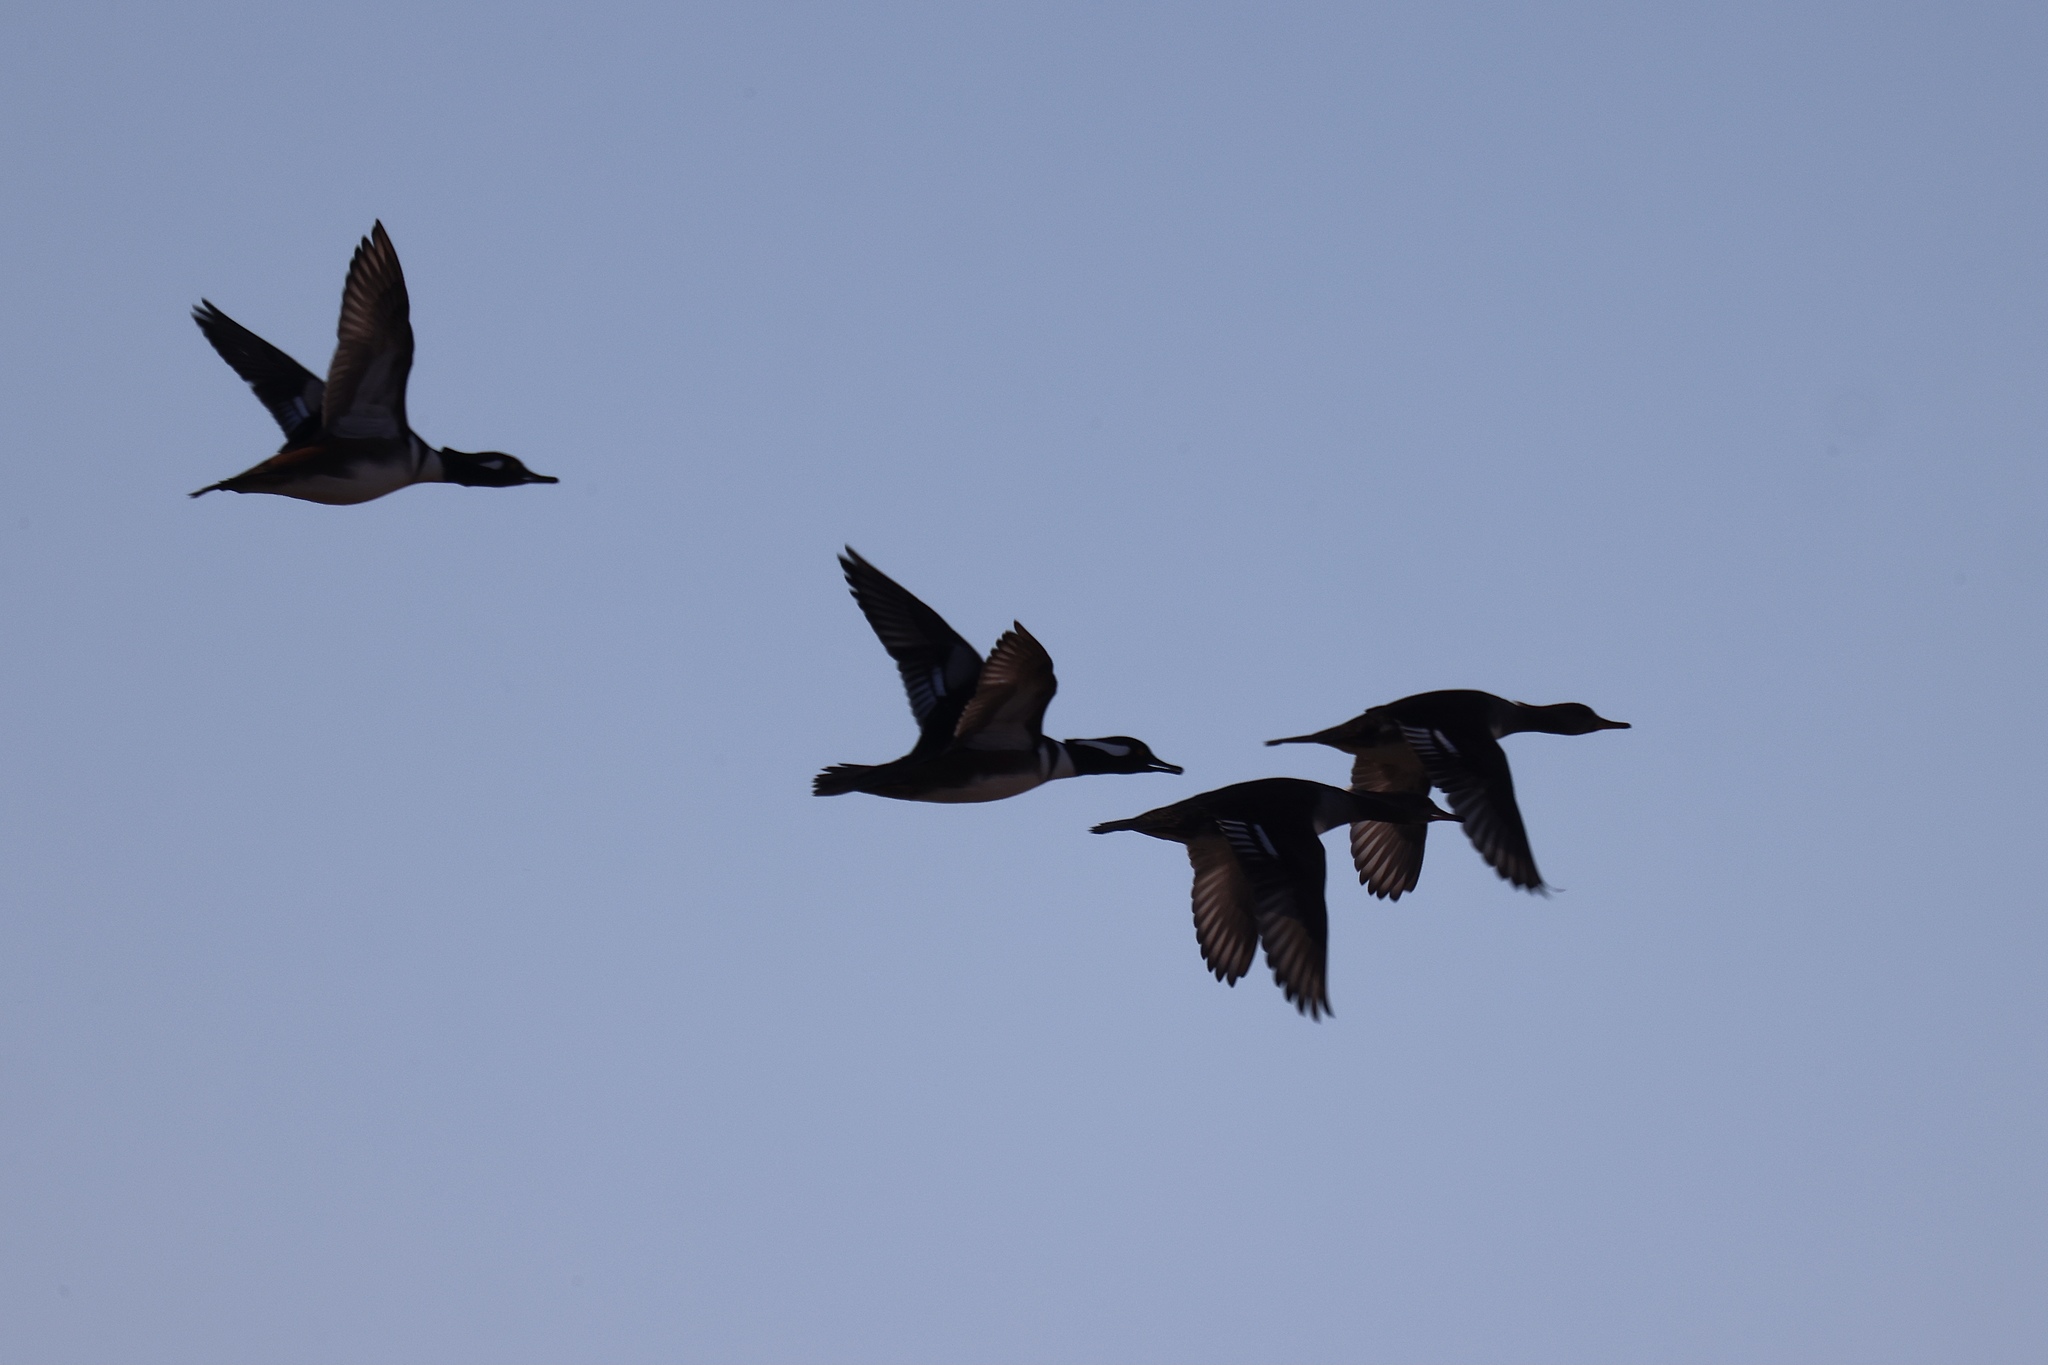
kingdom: Animalia
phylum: Chordata
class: Aves
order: Anseriformes
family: Anatidae
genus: Lophodytes
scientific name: Lophodytes cucullatus
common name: Hooded merganser
